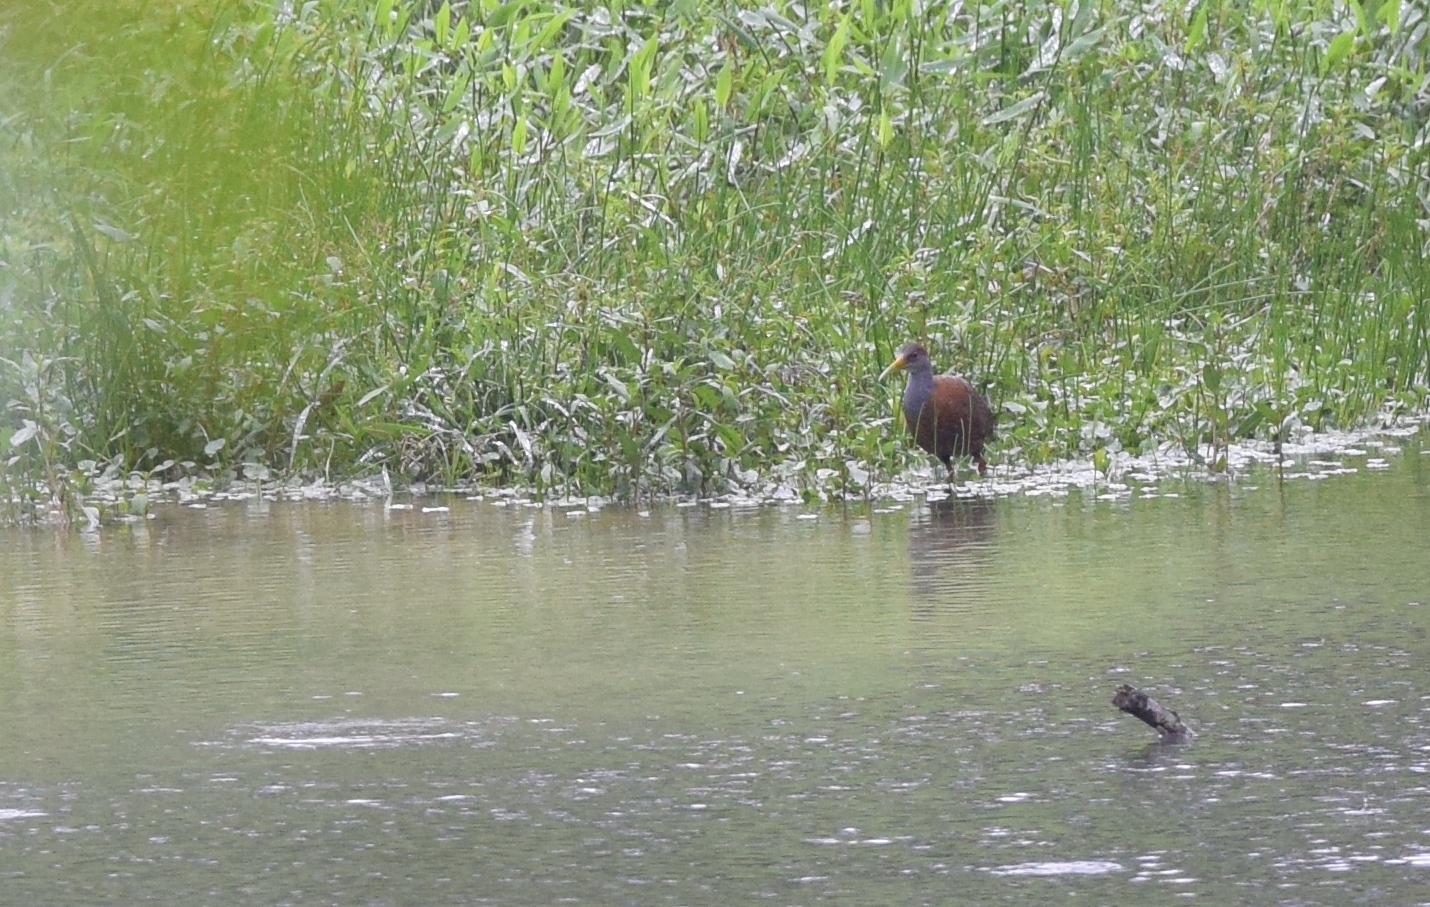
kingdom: Animalia
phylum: Chordata
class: Aves
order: Gruiformes
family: Rallidae
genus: Aramides
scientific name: Aramides cajanea
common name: Gray-necked wood-rail
